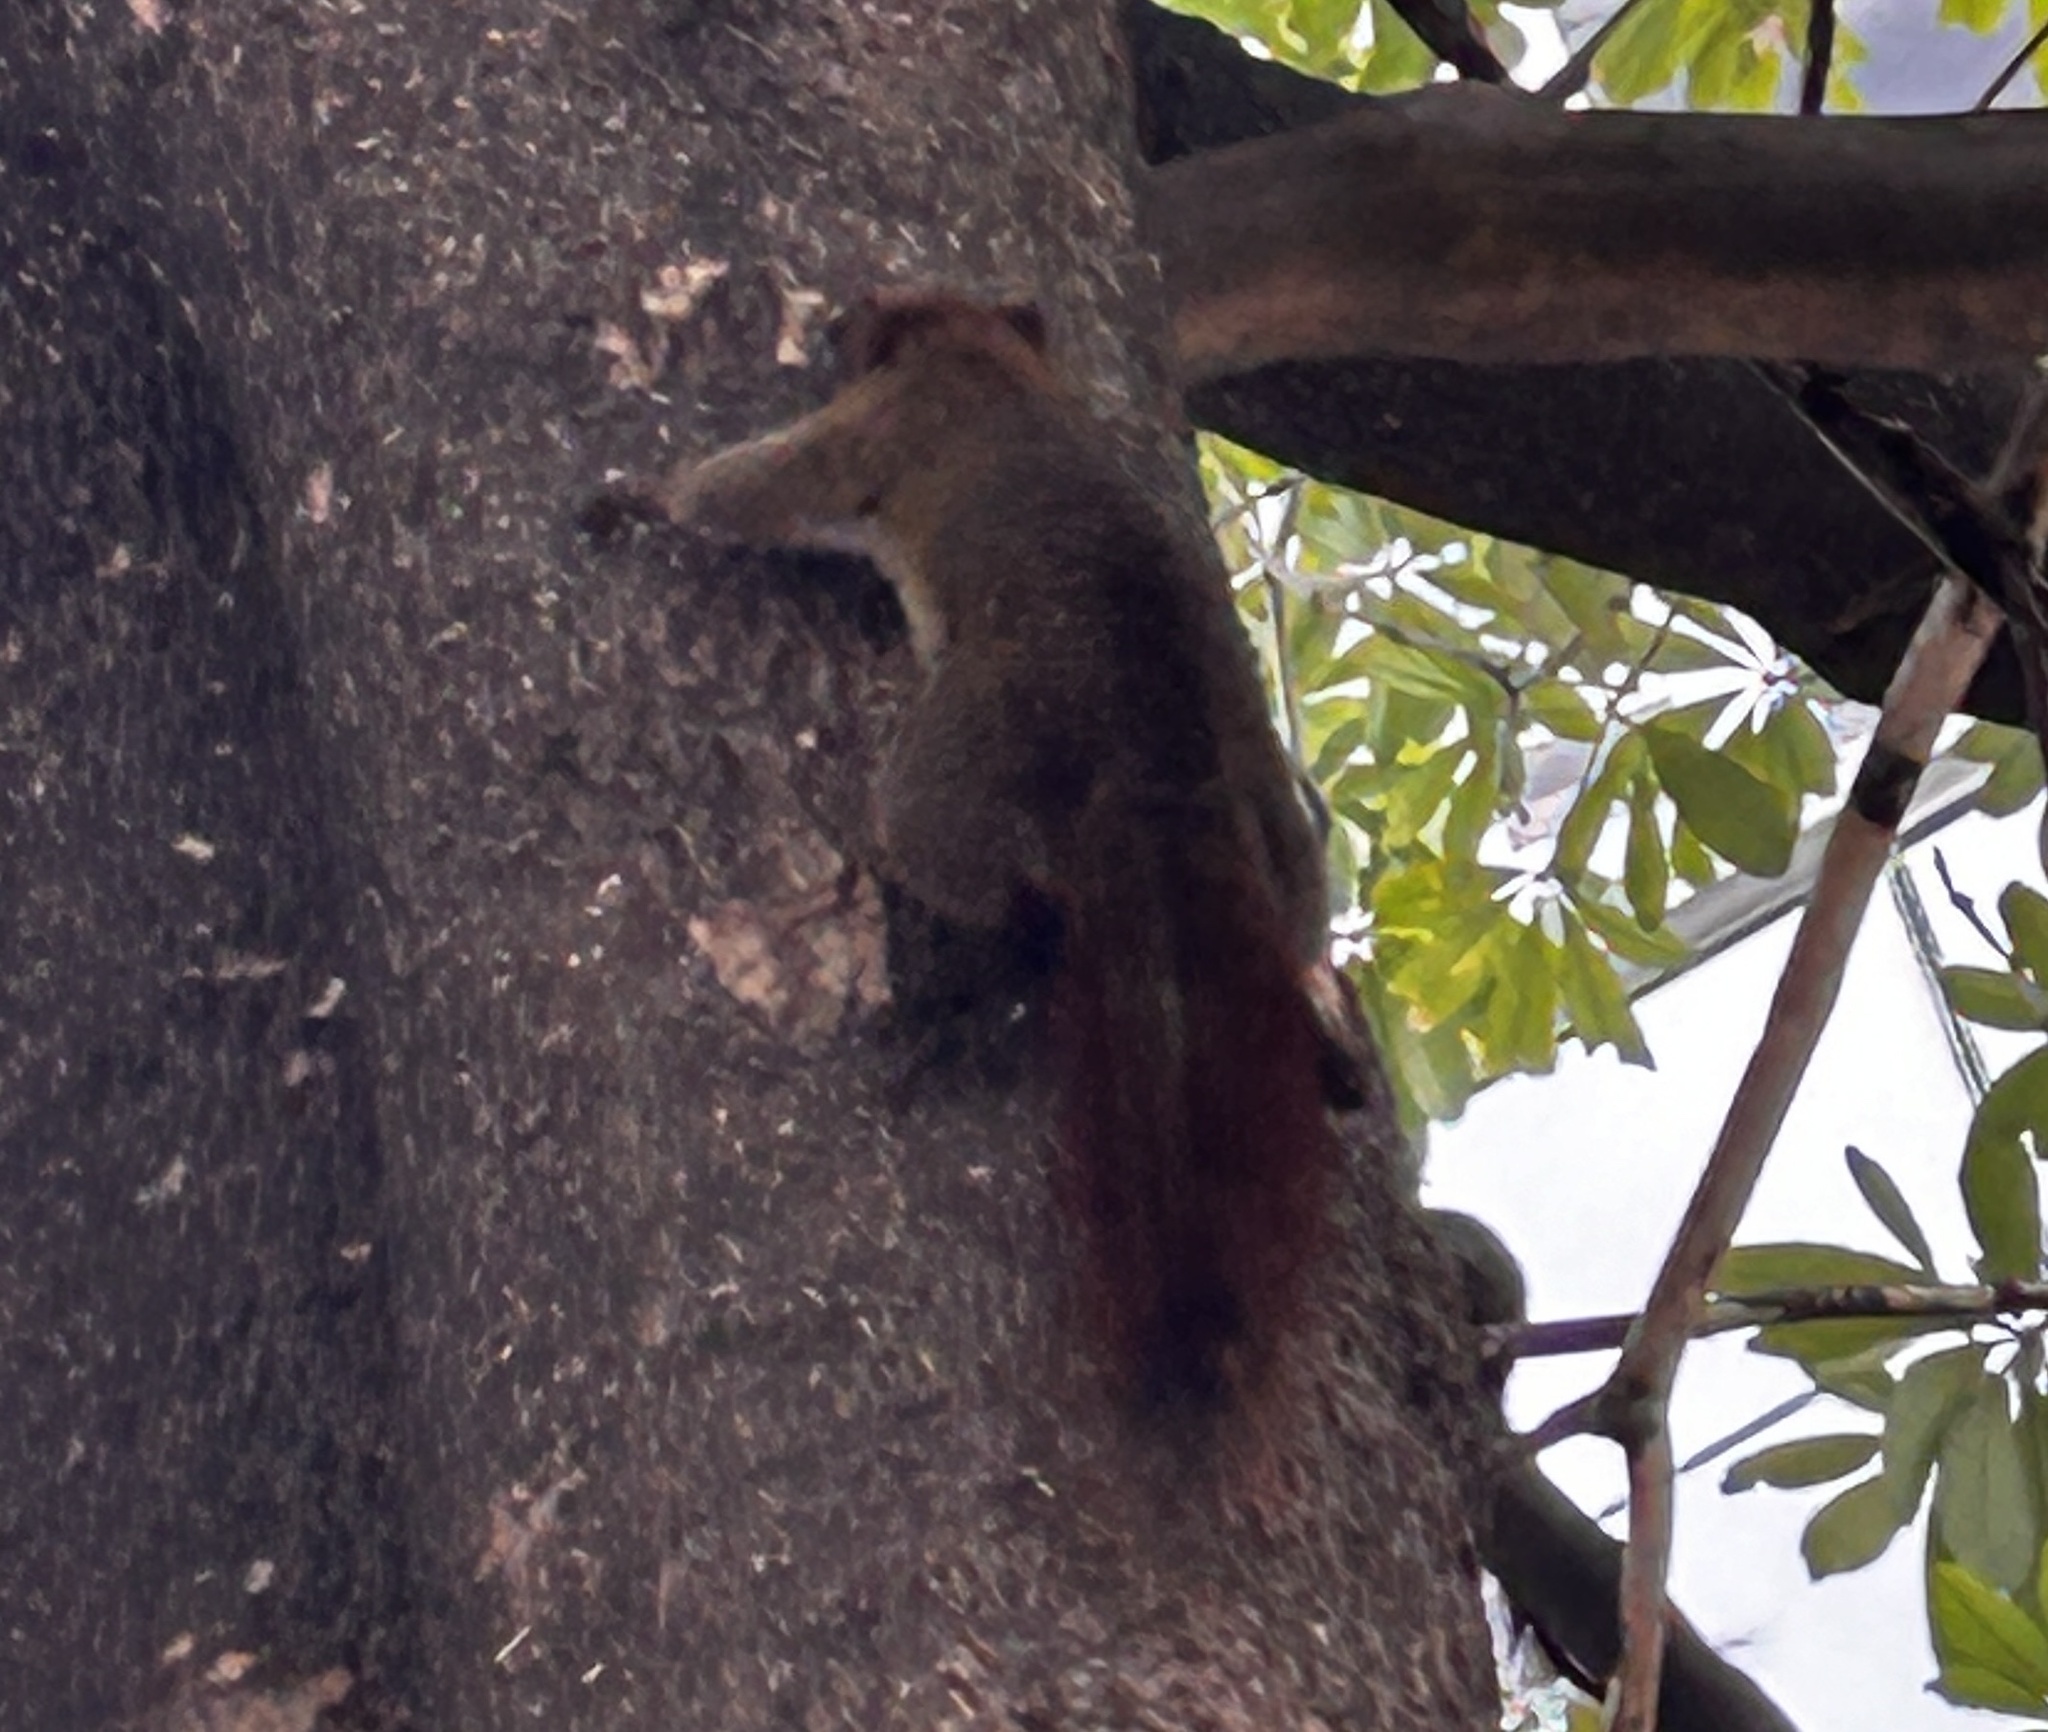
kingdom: Animalia
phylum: Chordata
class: Mammalia
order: Rodentia
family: Sciuridae
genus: Callosciurus
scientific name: Callosciurus finlaysonii
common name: Finlayson's squirrel
